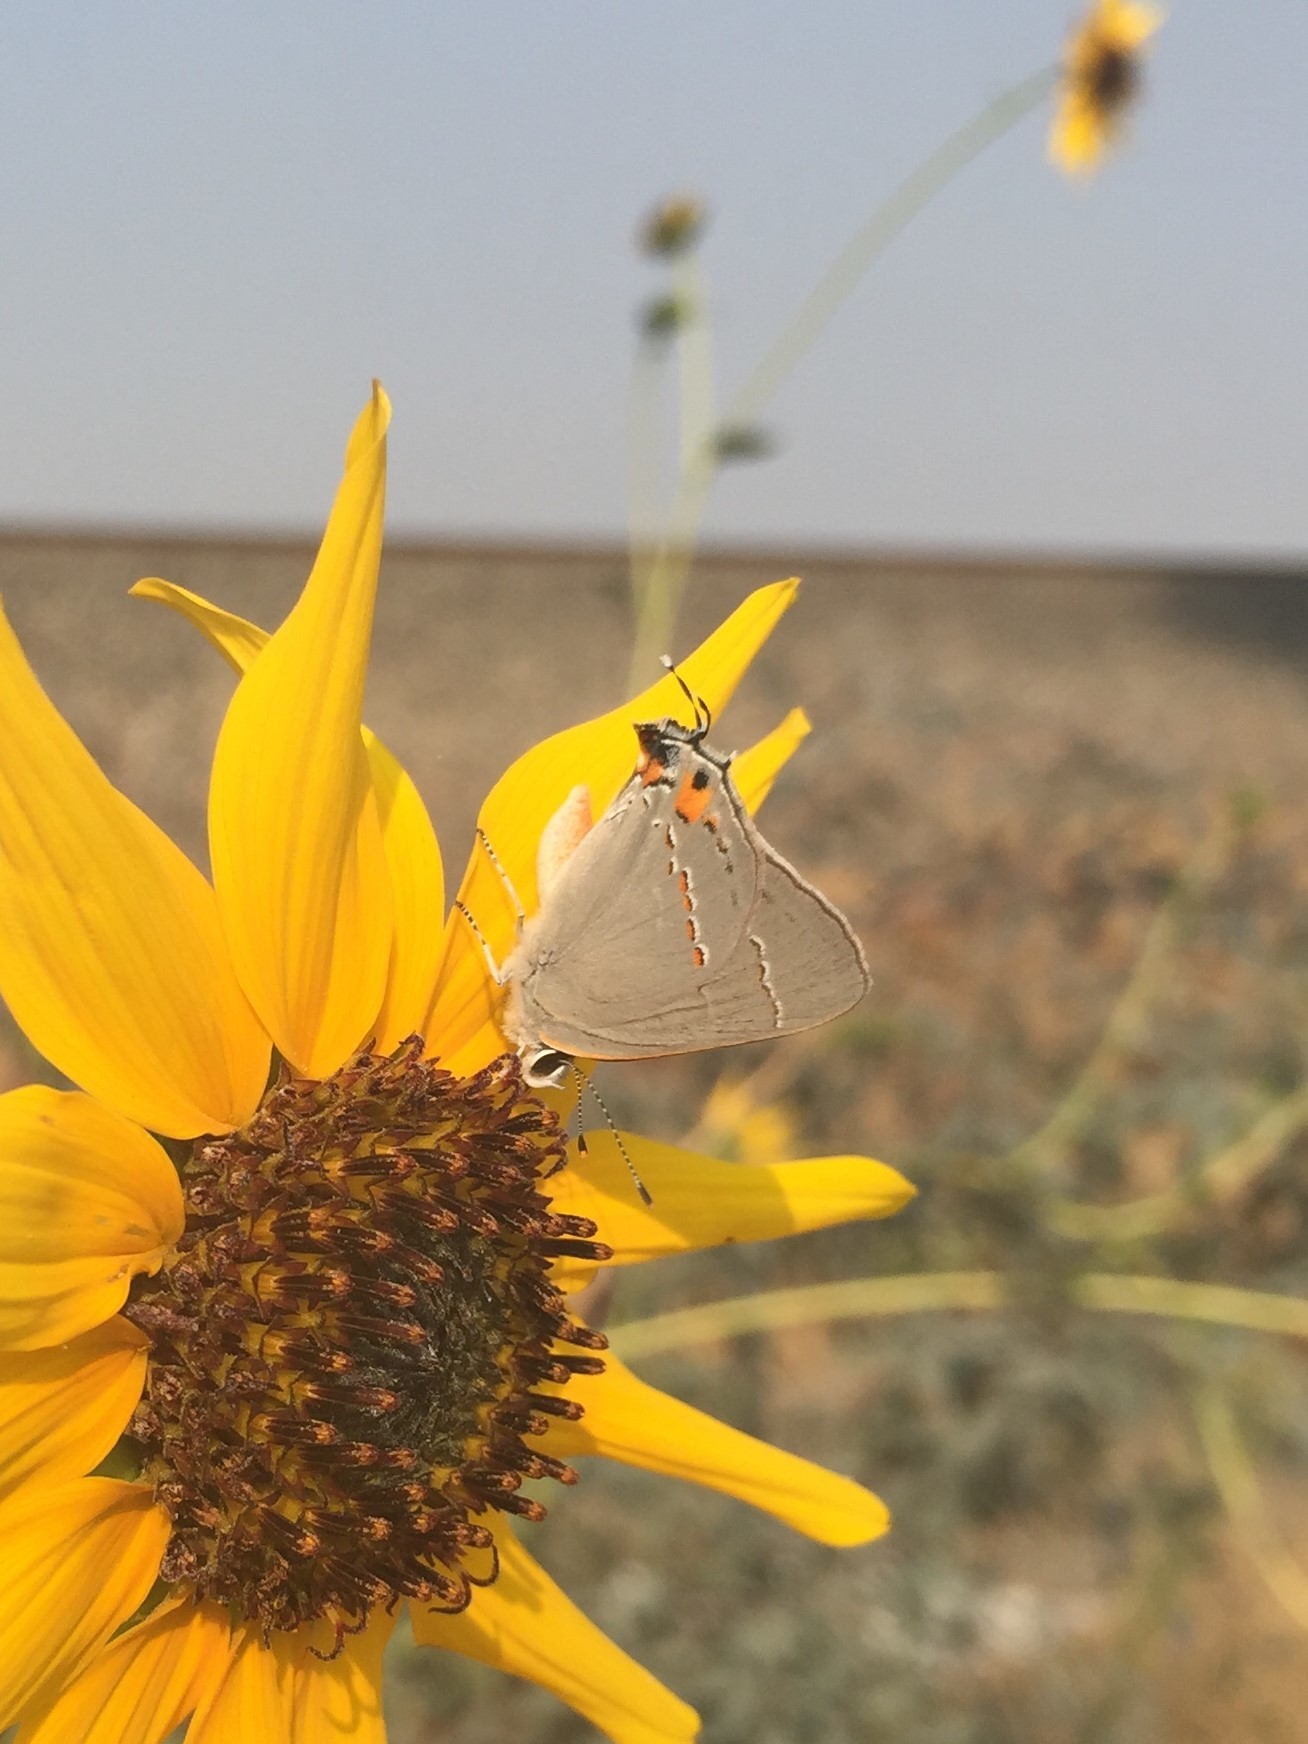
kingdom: Animalia
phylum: Arthropoda
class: Insecta
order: Lepidoptera
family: Lycaenidae
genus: Strymon
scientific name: Strymon melinus
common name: Gray hairstreak
